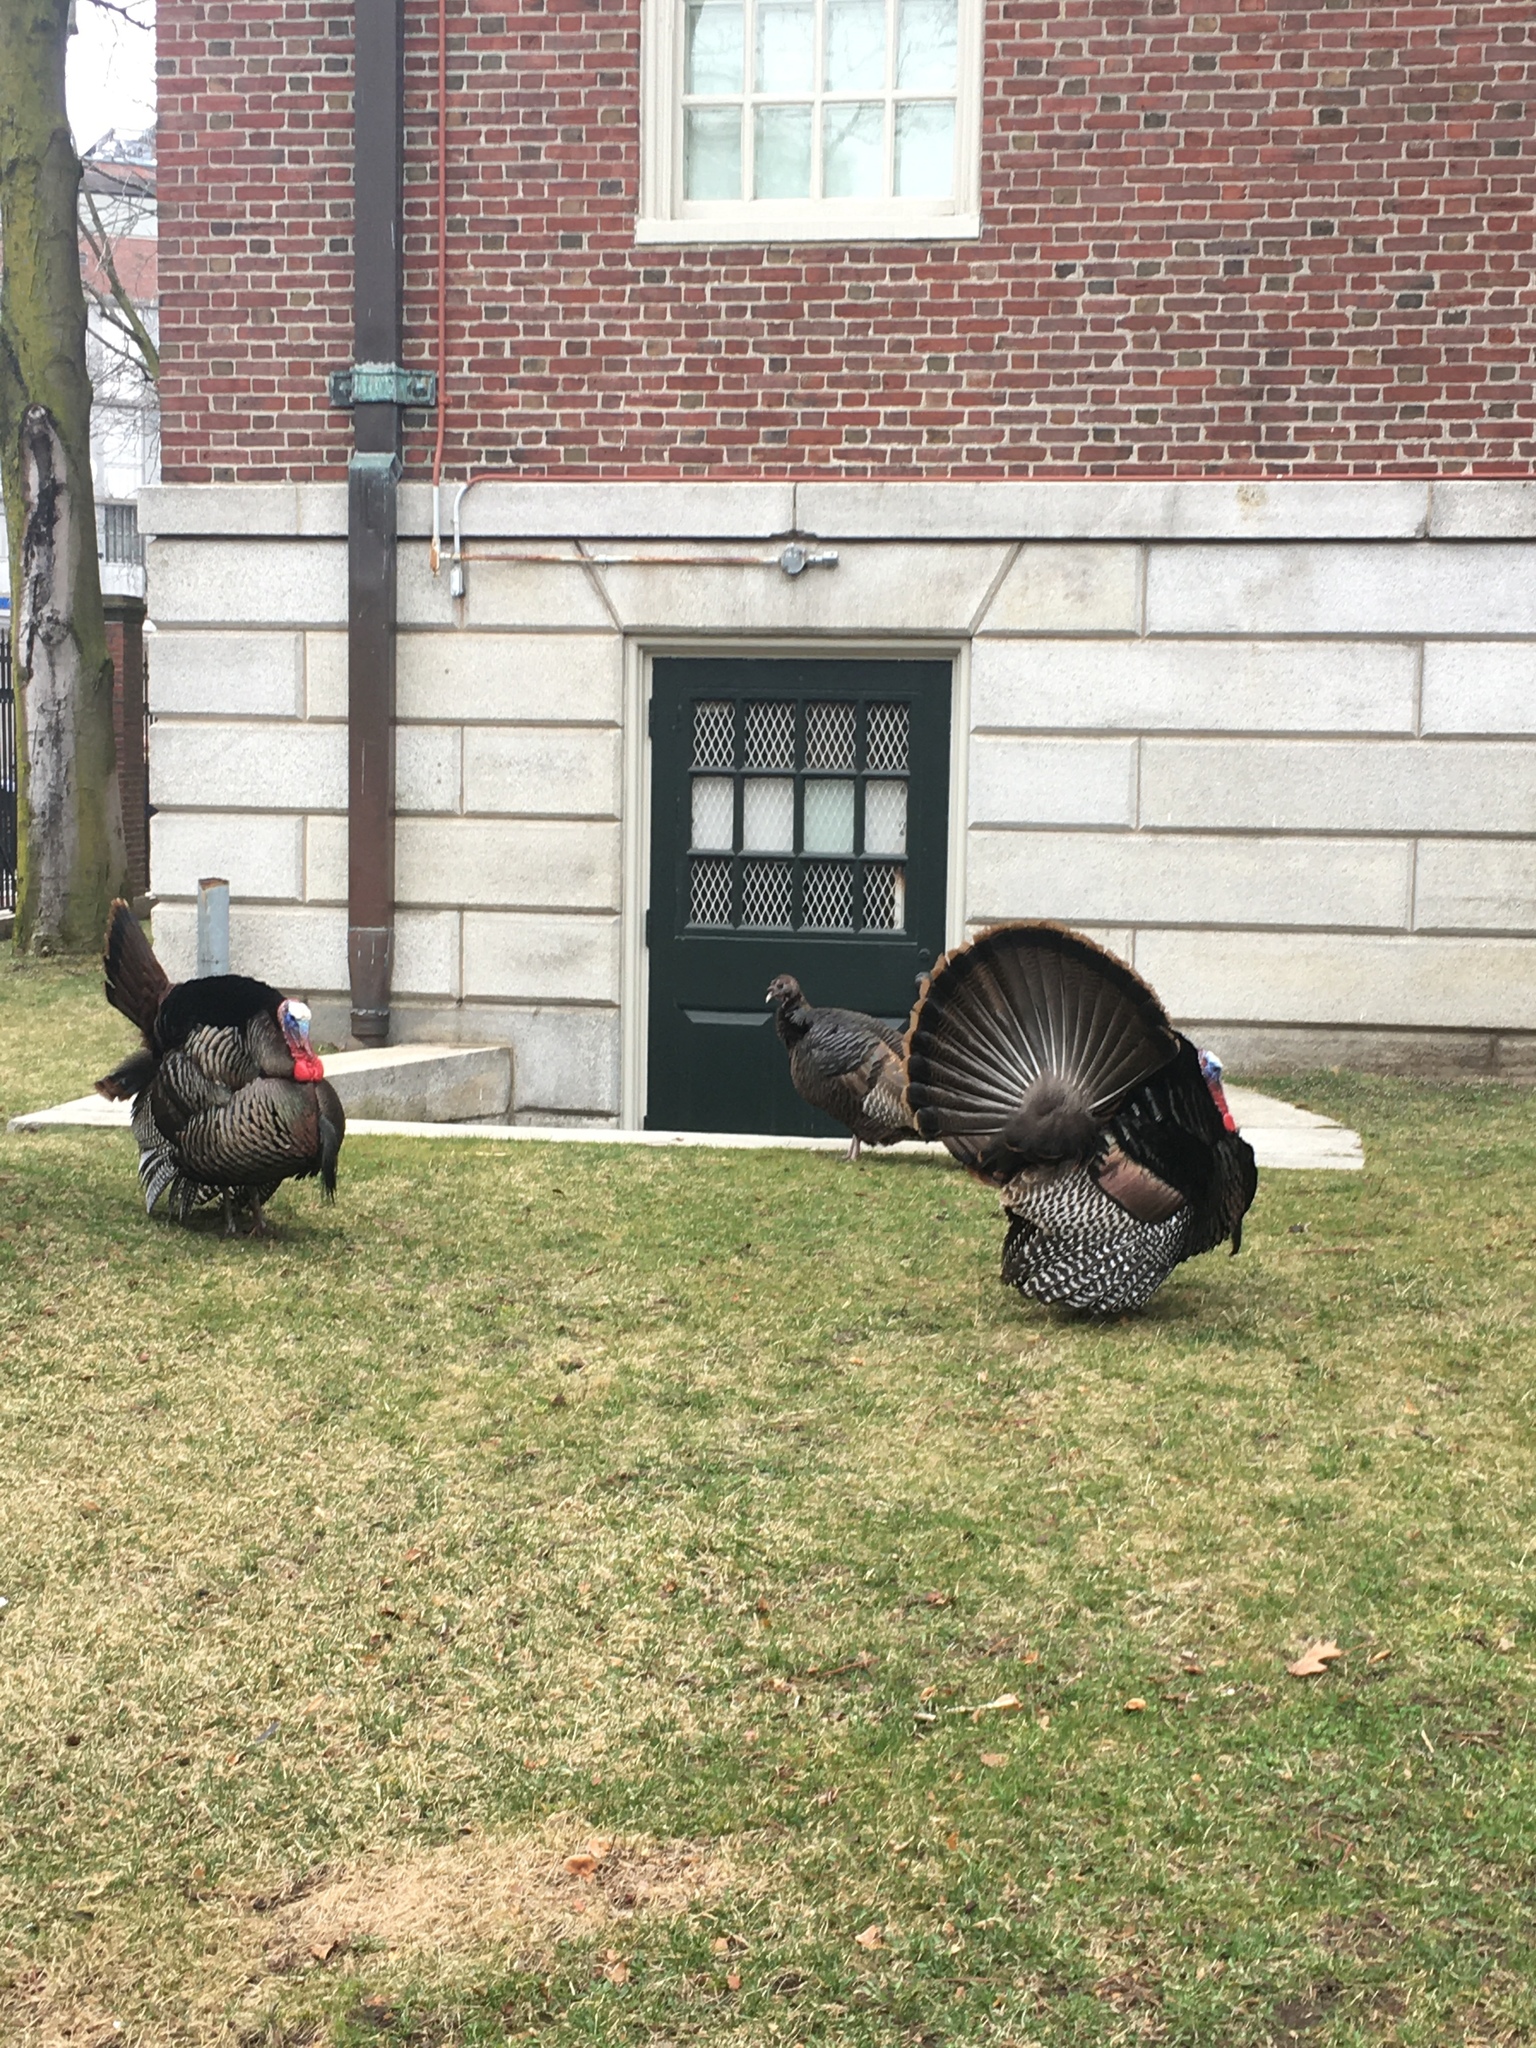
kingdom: Animalia
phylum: Chordata
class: Aves
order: Galliformes
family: Phasianidae
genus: Meleagris
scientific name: Meleagris gallopavo
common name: Wild turkey
